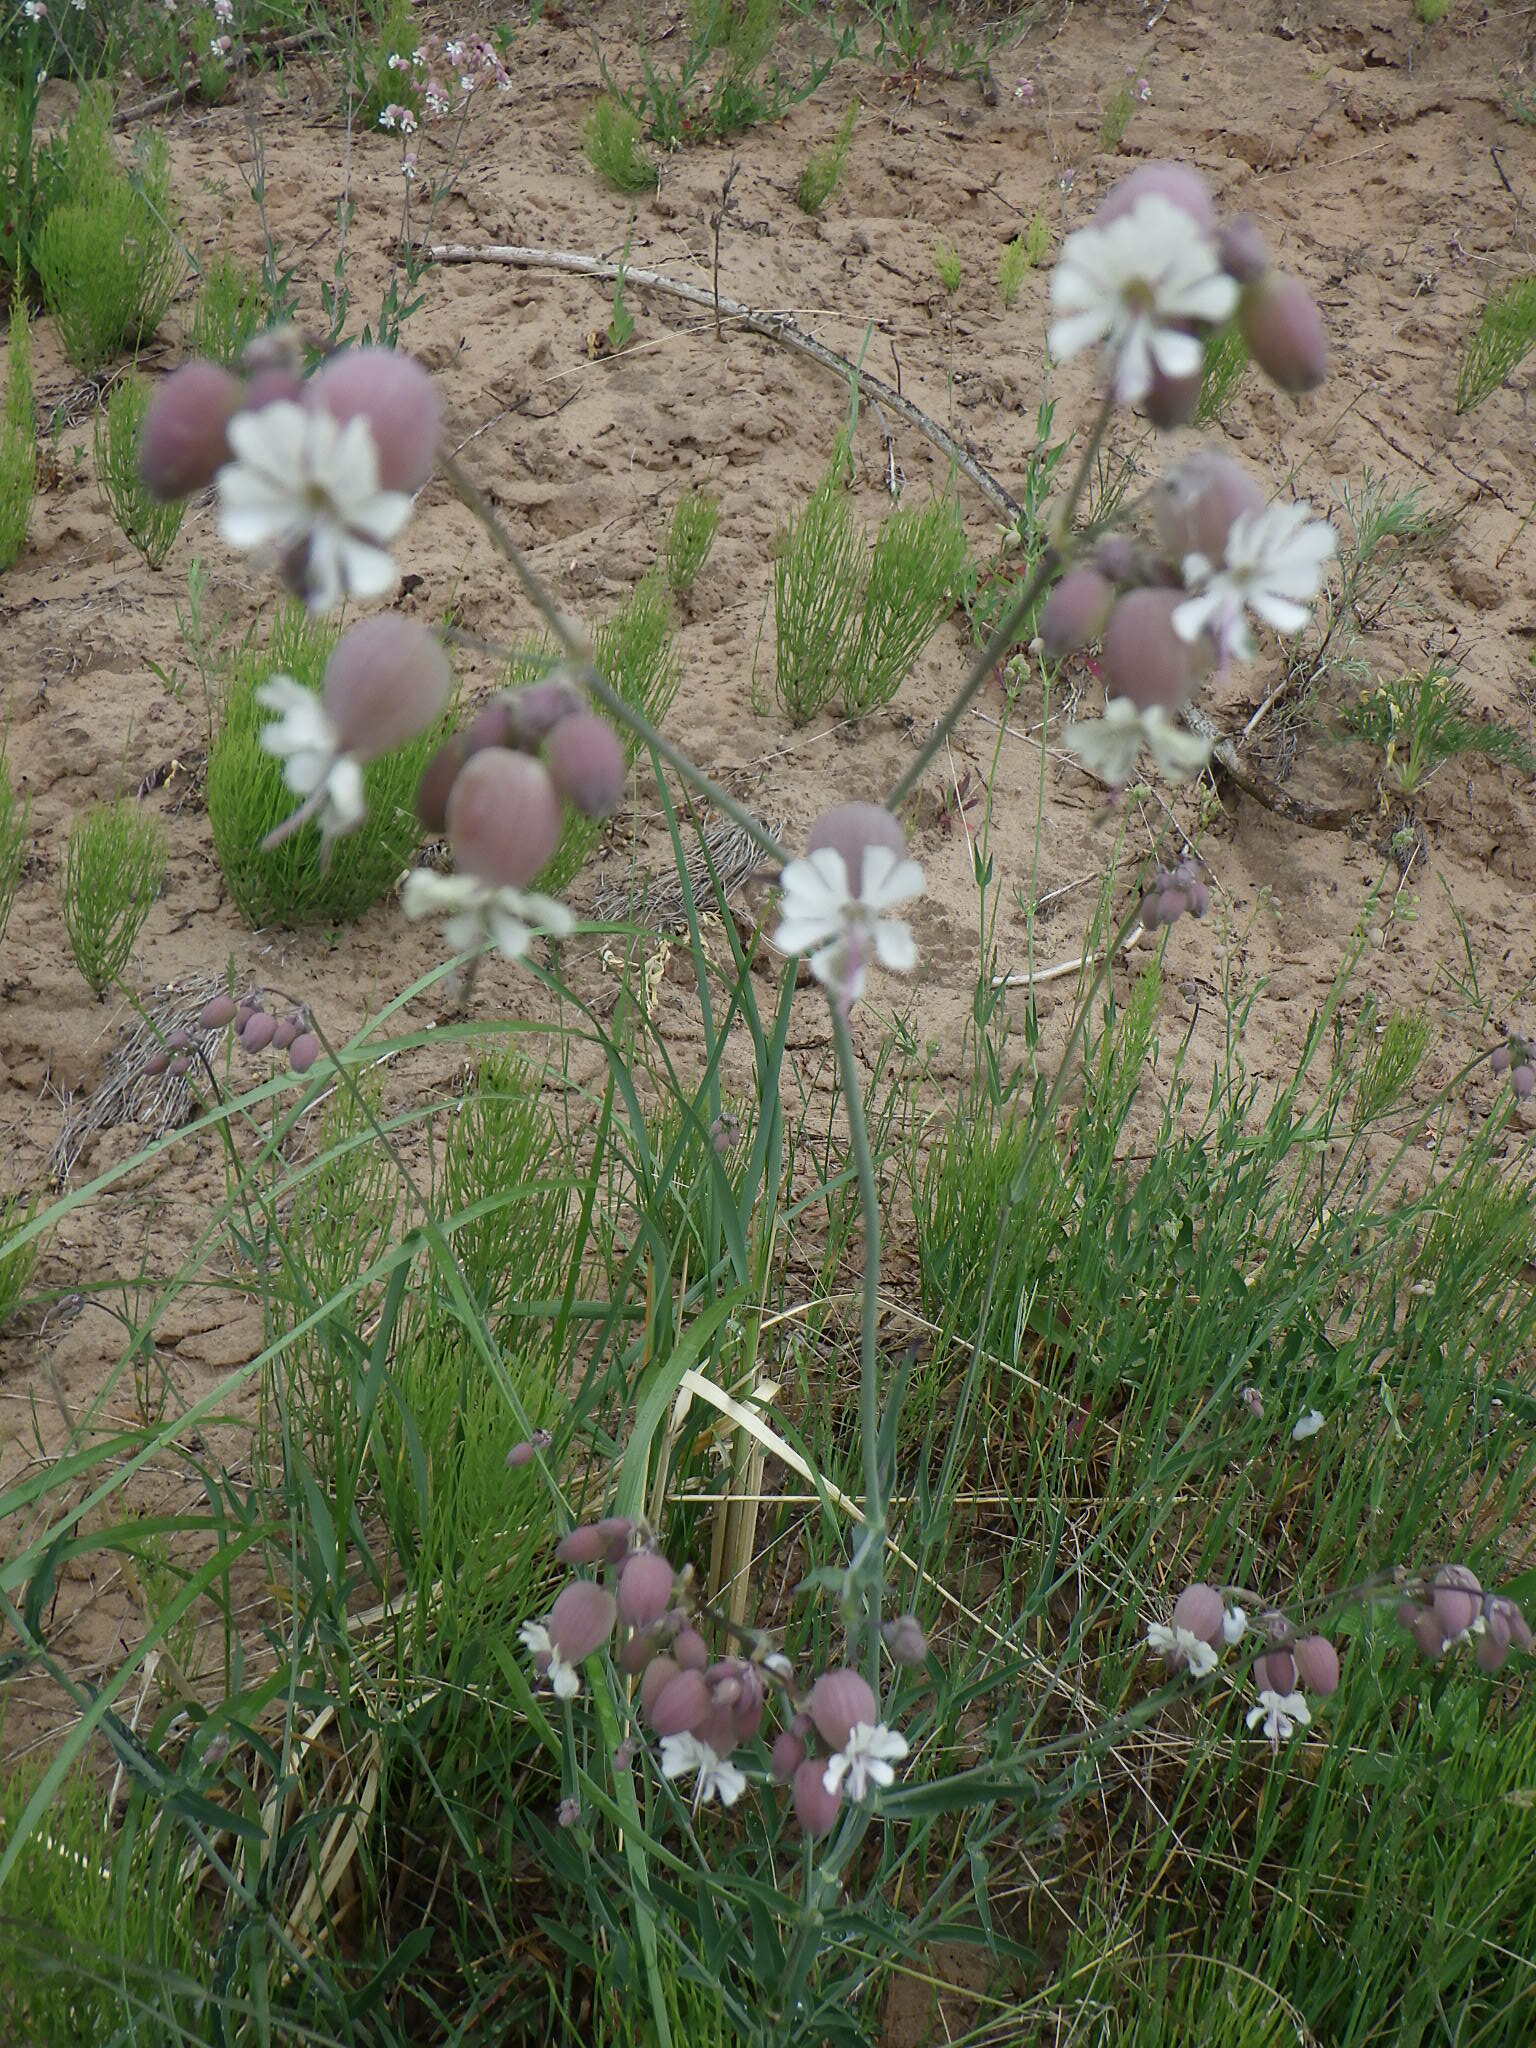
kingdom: Plantae
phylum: Tracheophyta
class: Magnoliopsida
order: Caryophyllales
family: Caryophyllaceae
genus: Silene
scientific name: Silene vulgaris
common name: Bladder campion
